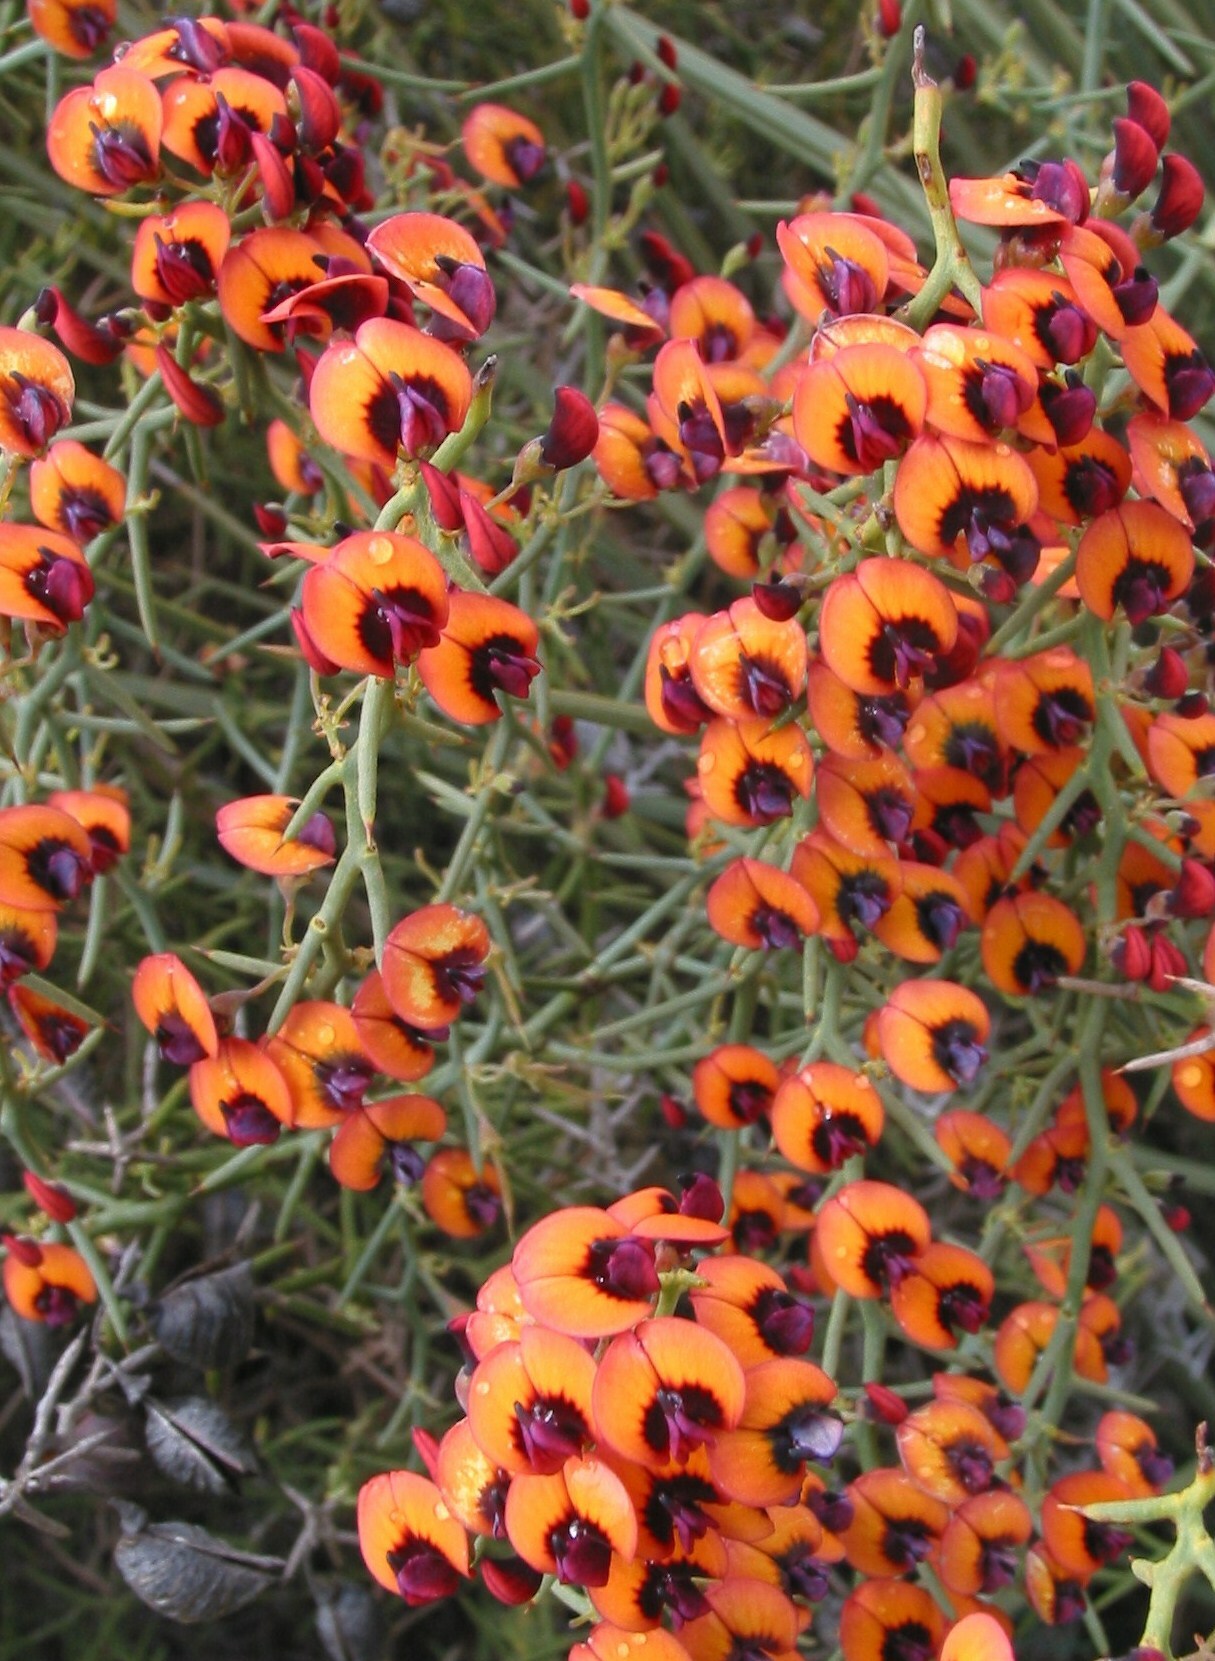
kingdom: Plantae
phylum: Tracheophyta
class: Magnoliopsida
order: Fabales
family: Fabaceae
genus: Daviesia
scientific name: Daviesia incrassata
